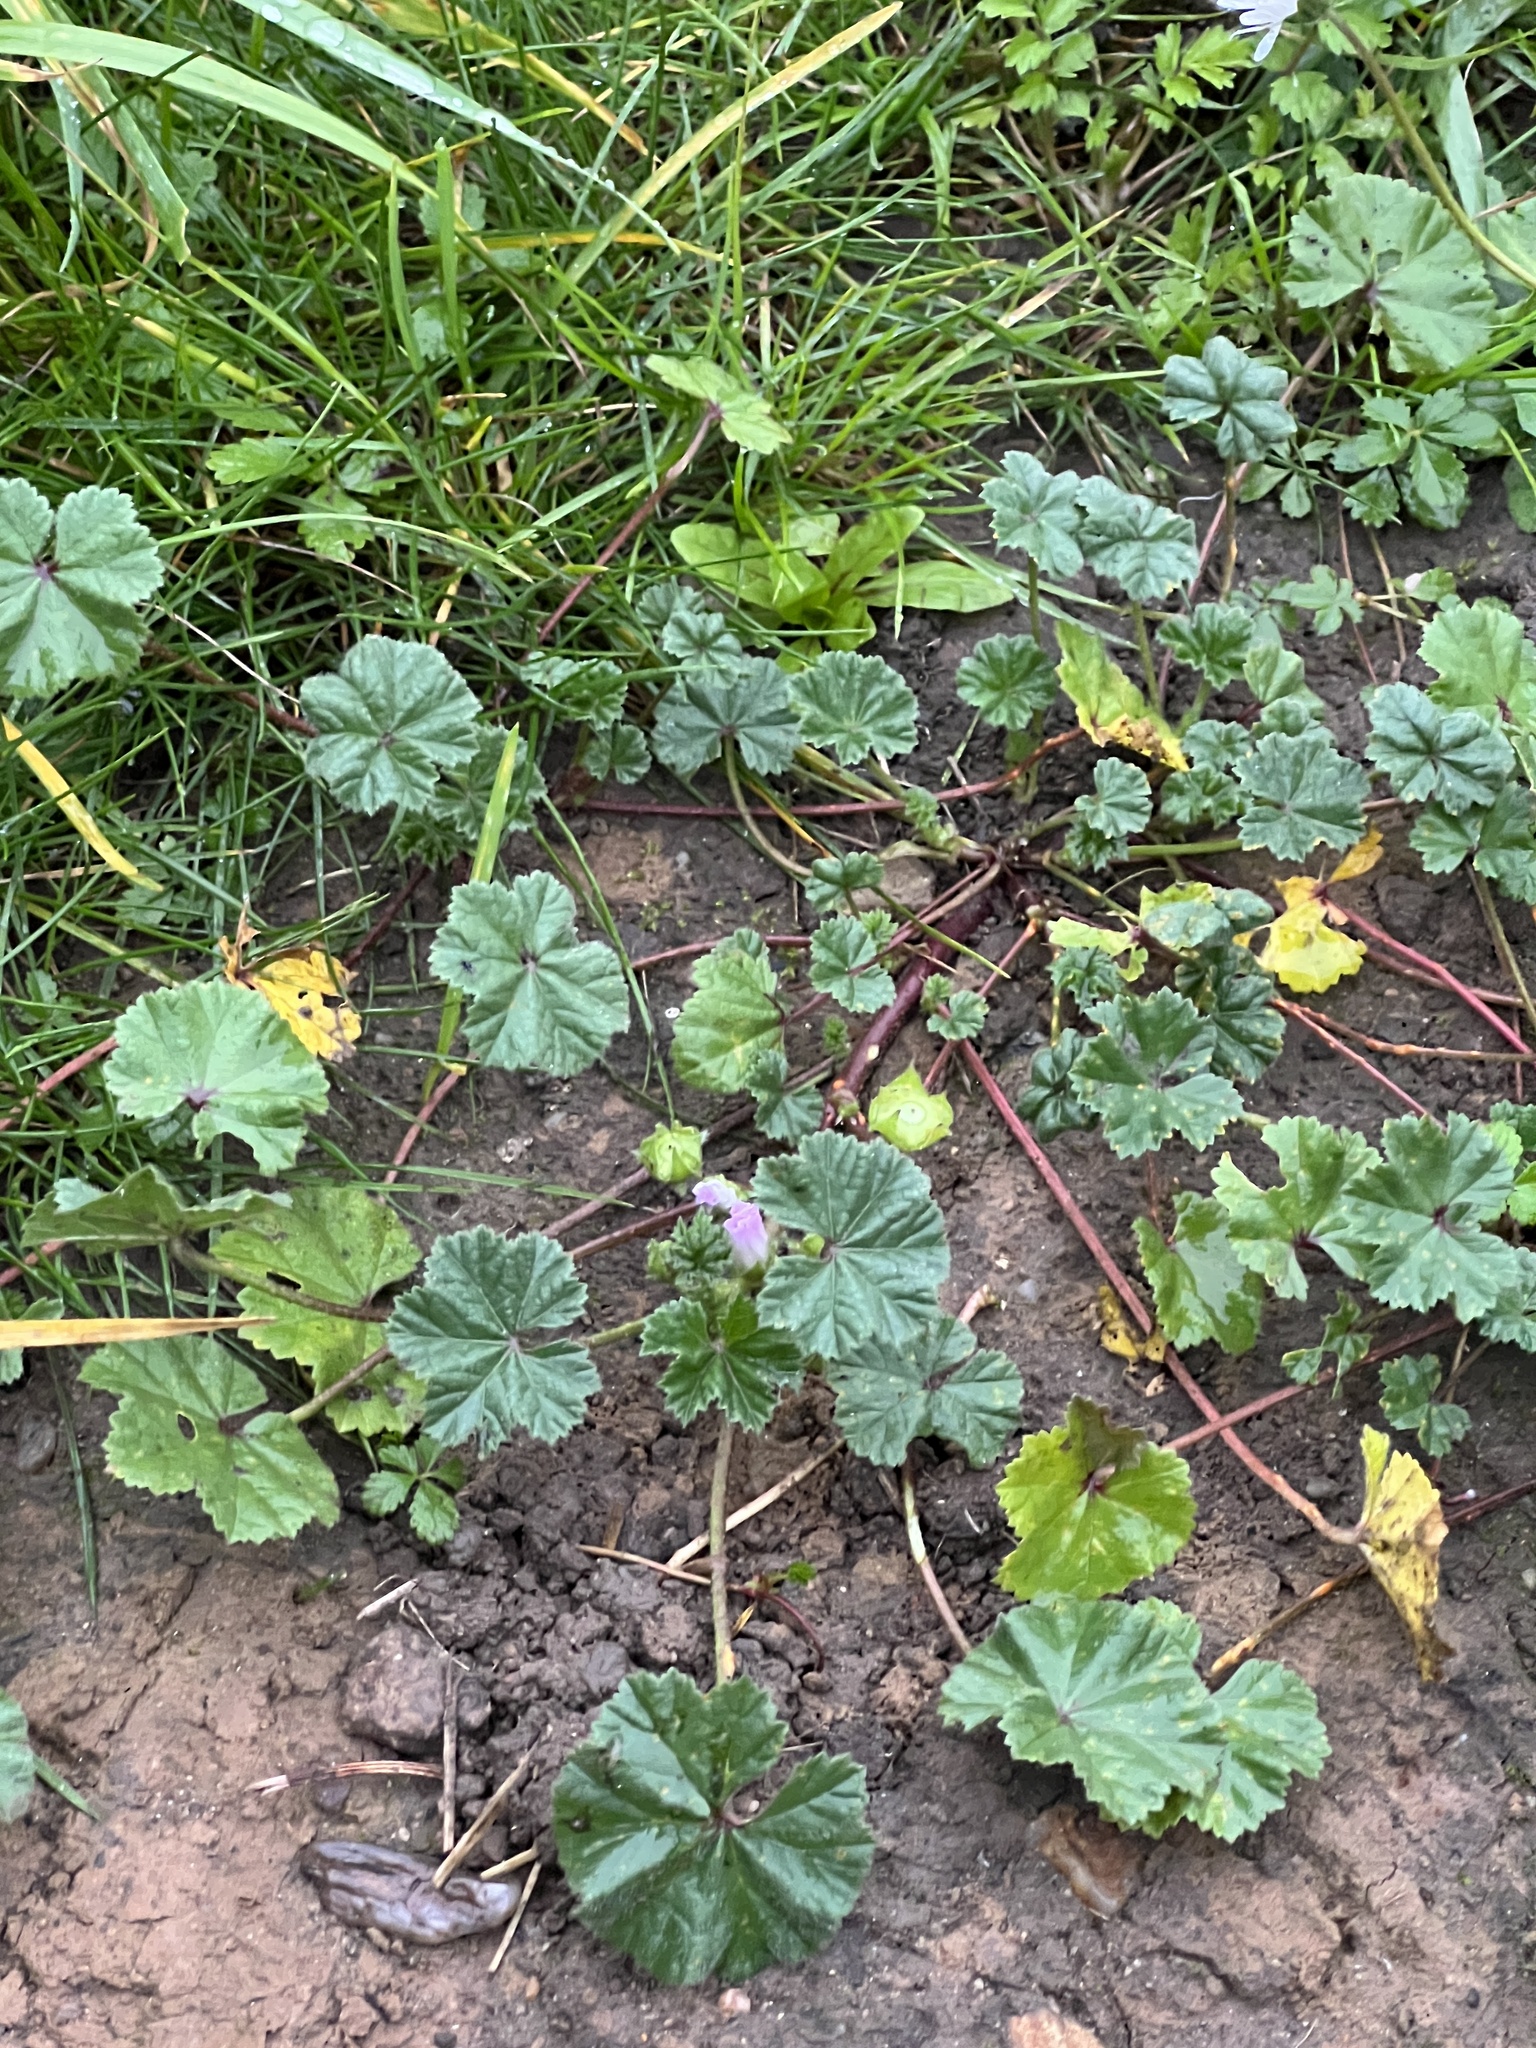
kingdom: Plantae
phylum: Tracheophyta
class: Magnoliopsida
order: Malvales
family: Malvaceae
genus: Malva
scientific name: Malva neglecta
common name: Common mallow
